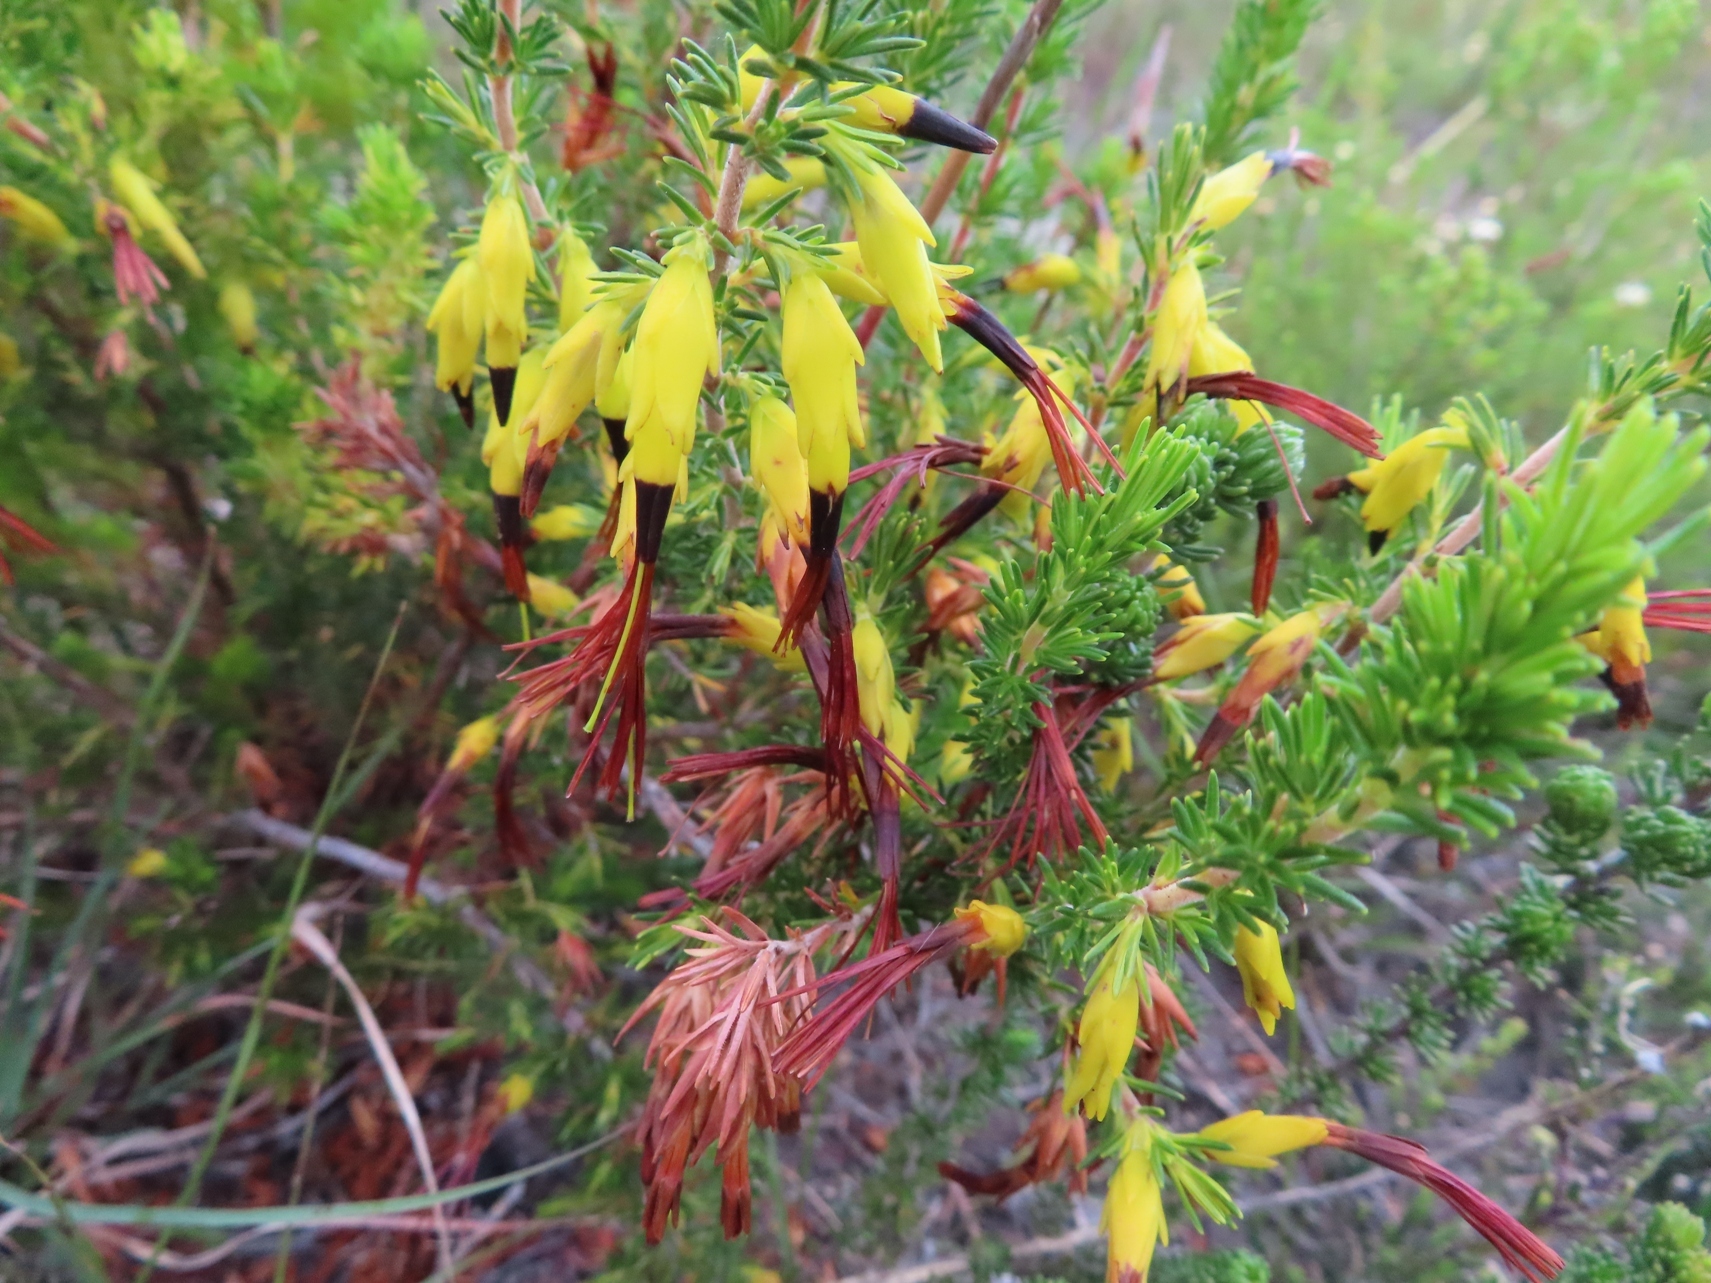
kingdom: Plantae
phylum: Tracheophyta
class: Magnoliopsida
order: Ericales
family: Ericaceae
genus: Erica
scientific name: Erica melastoma
